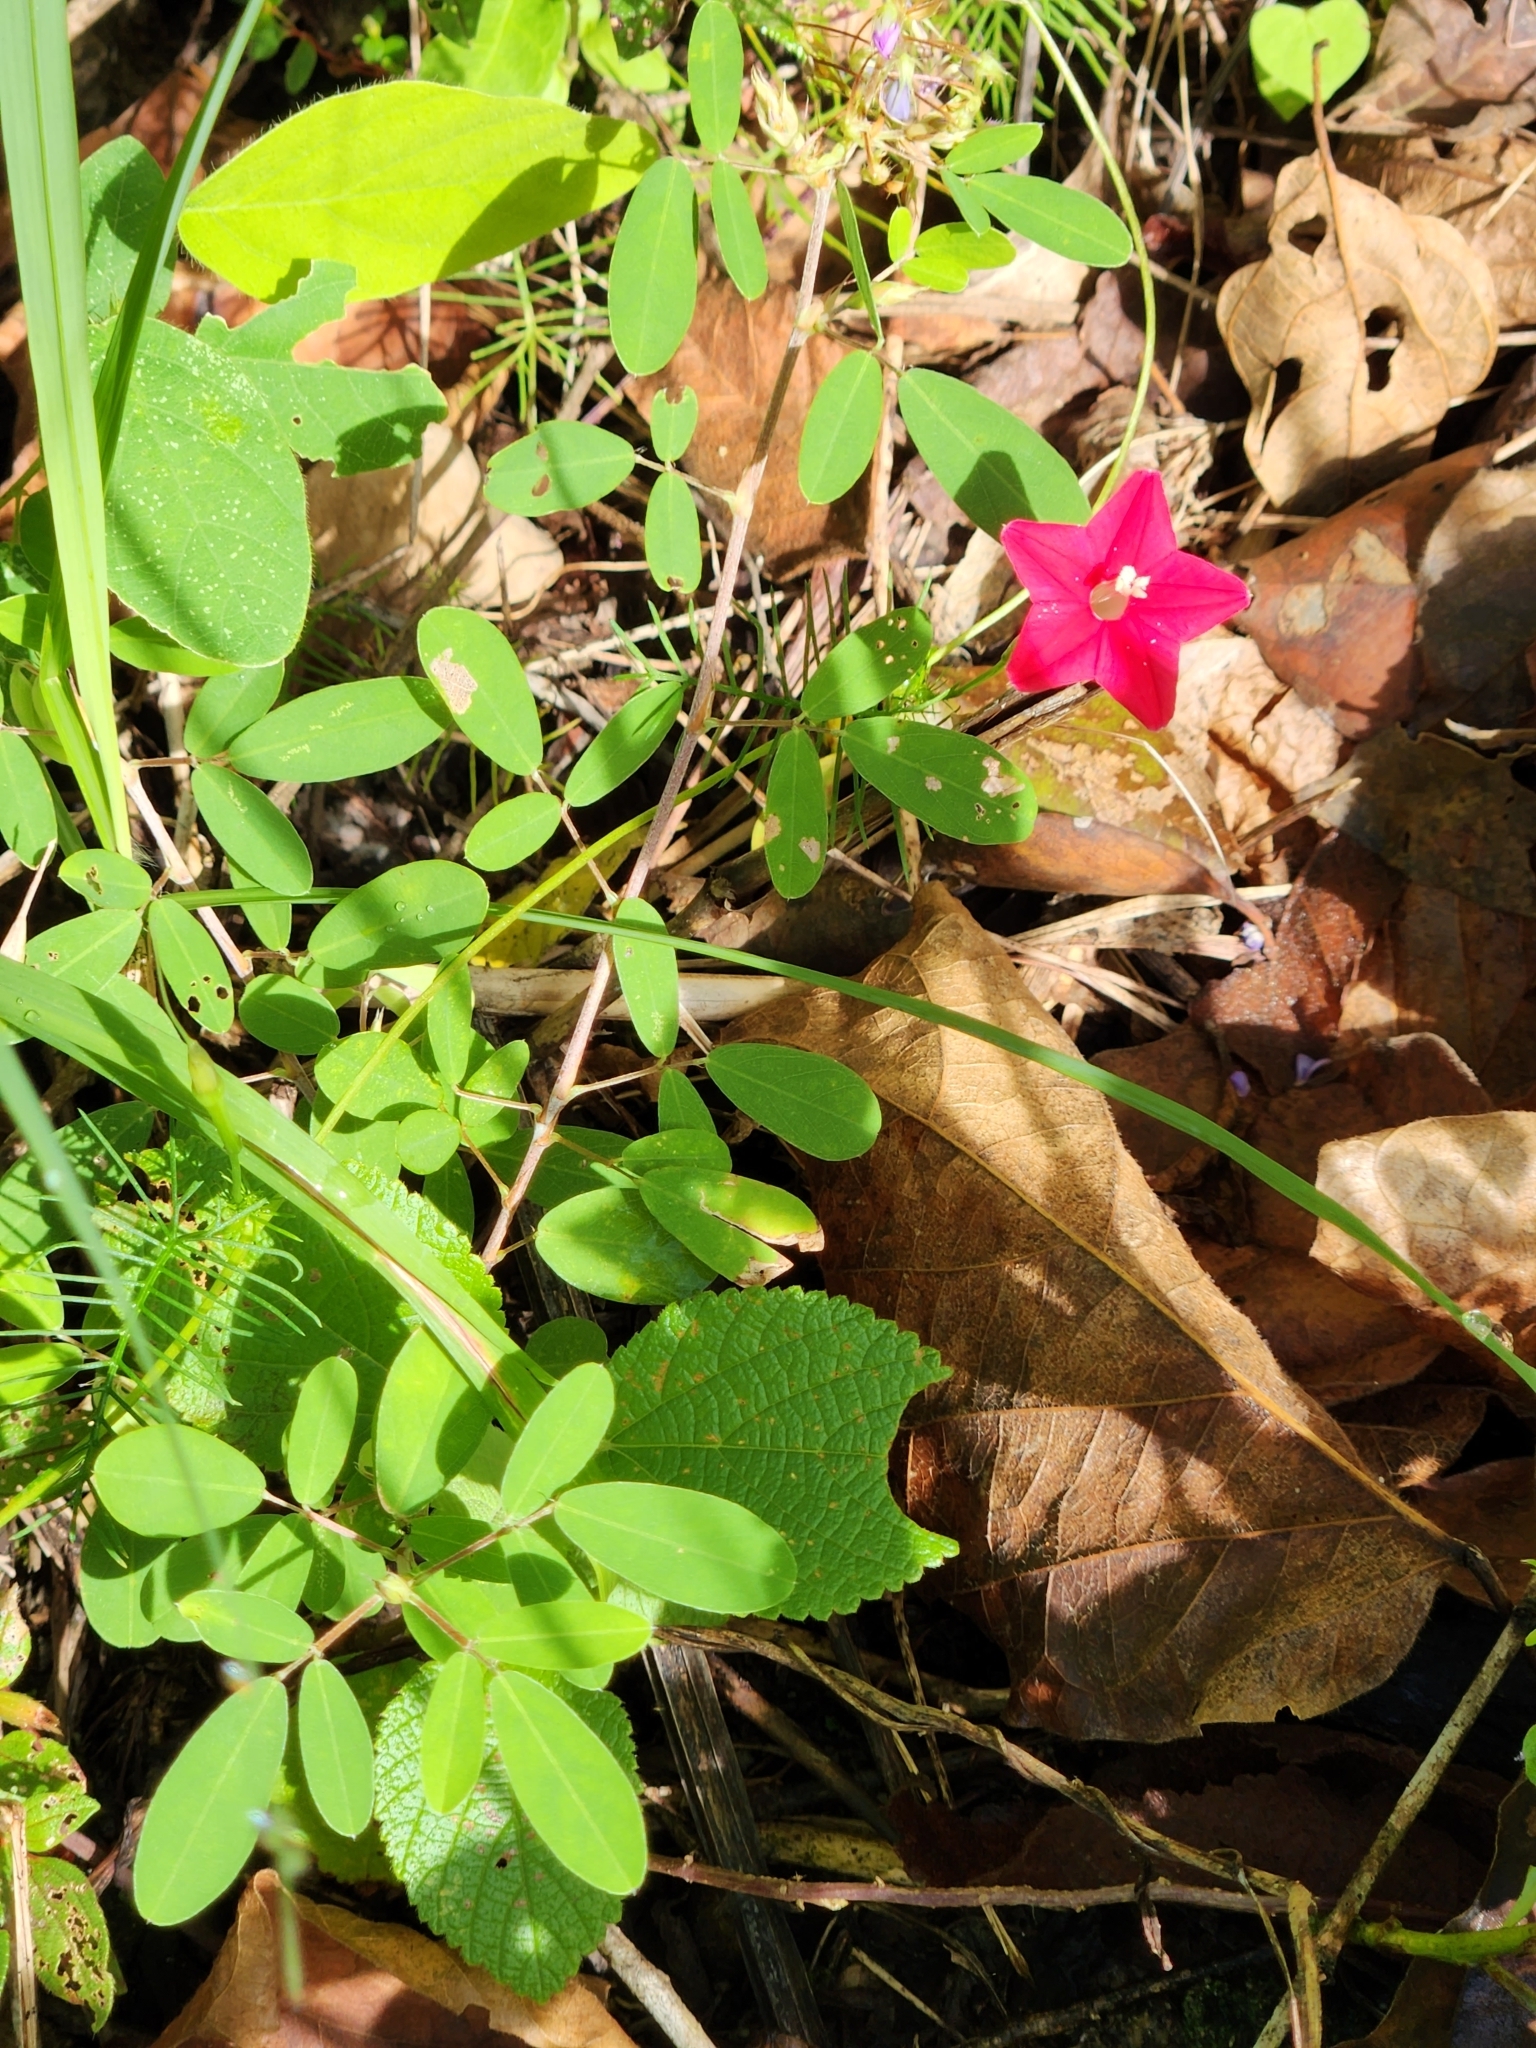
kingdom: Plantae
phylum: Tracheophyta
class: Magnoliopsida
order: Solanales
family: Convolvulaceae
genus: Ipomoea
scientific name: Ipomoea quamoclit
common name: Cypress vine
